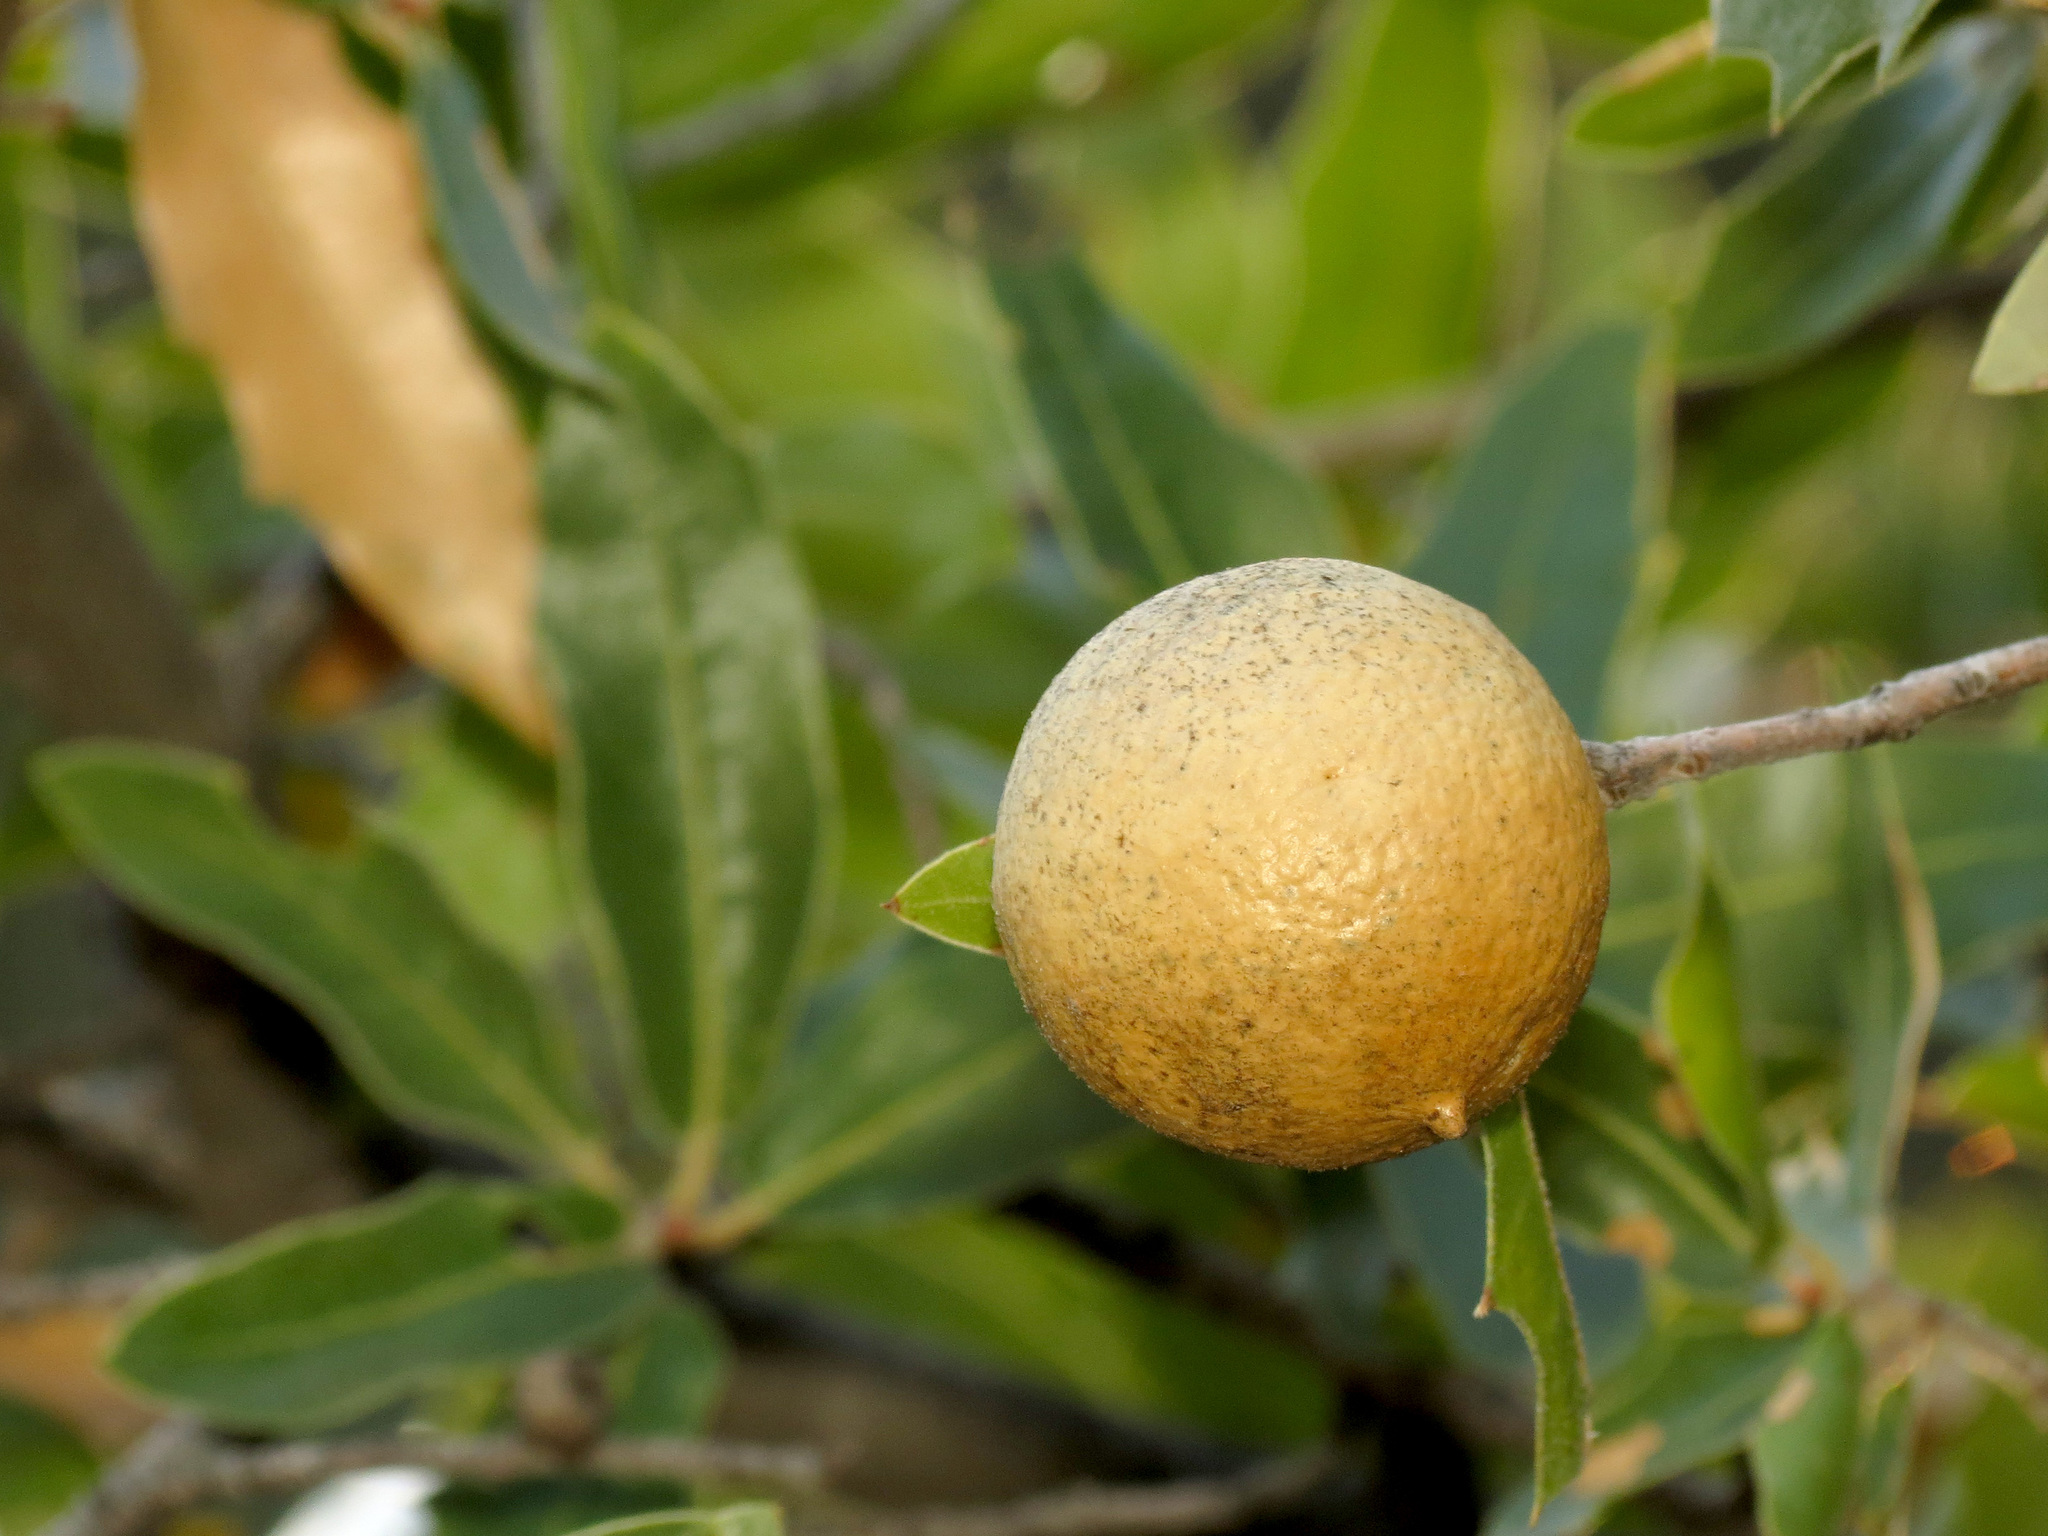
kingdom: Animalia
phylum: Arthropoda
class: Insecta
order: Hymenoptera
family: Cynipidae
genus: Amphibolips
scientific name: Amphibolips
